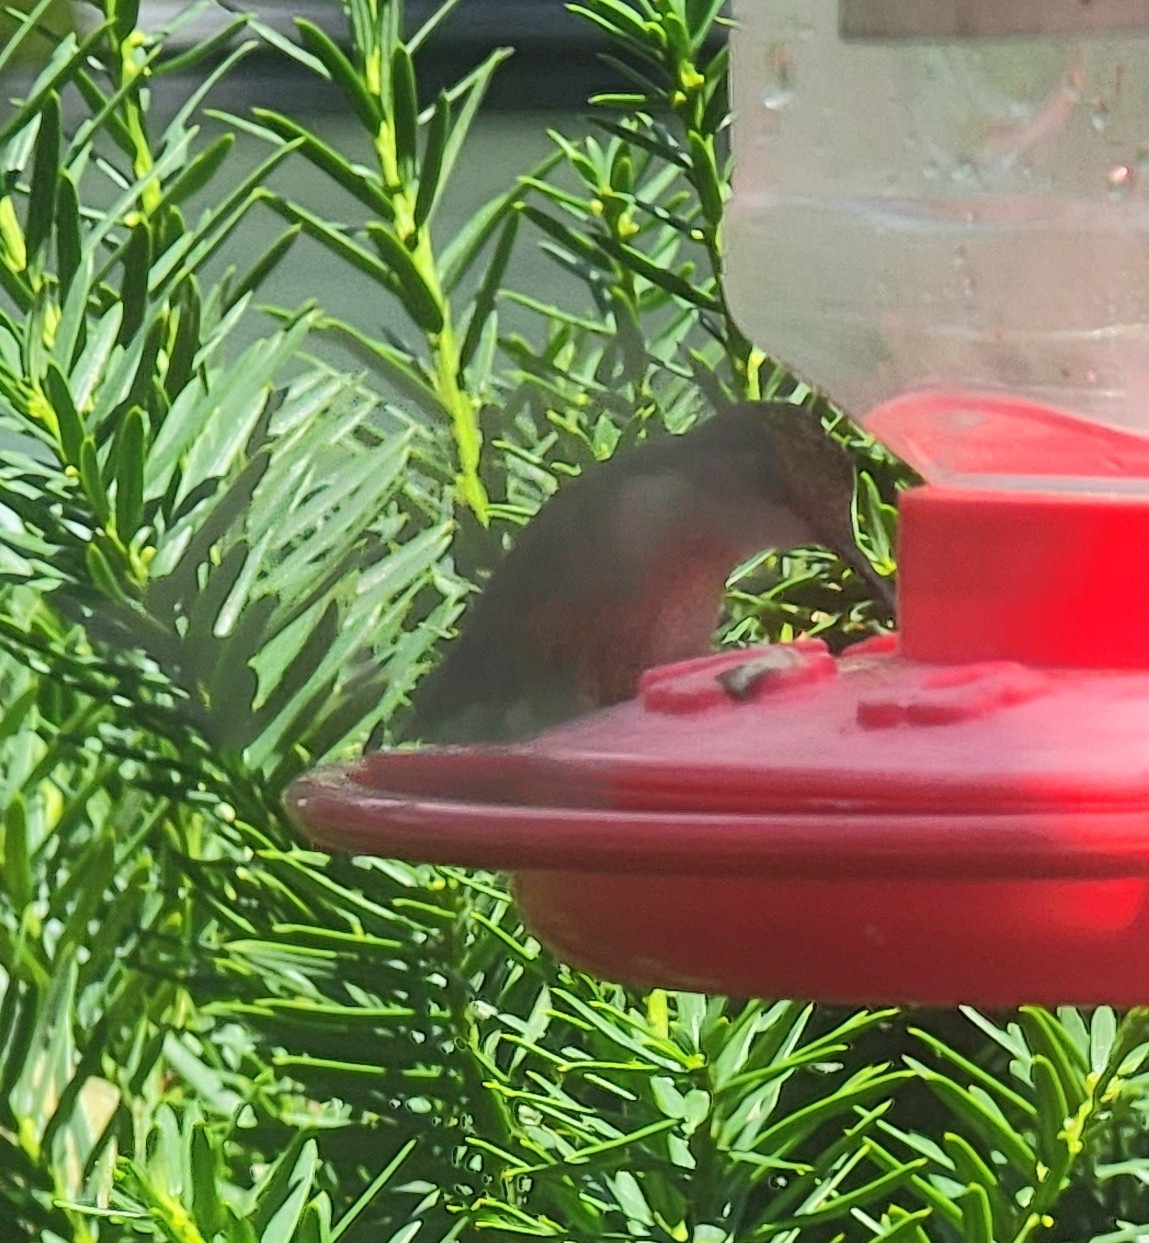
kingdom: Animalia
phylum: Chordata
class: Aves
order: Apodiformes
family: Trochilidae
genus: Archilochus
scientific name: Archilochus colubris
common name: Ruby-throated hummingbird
